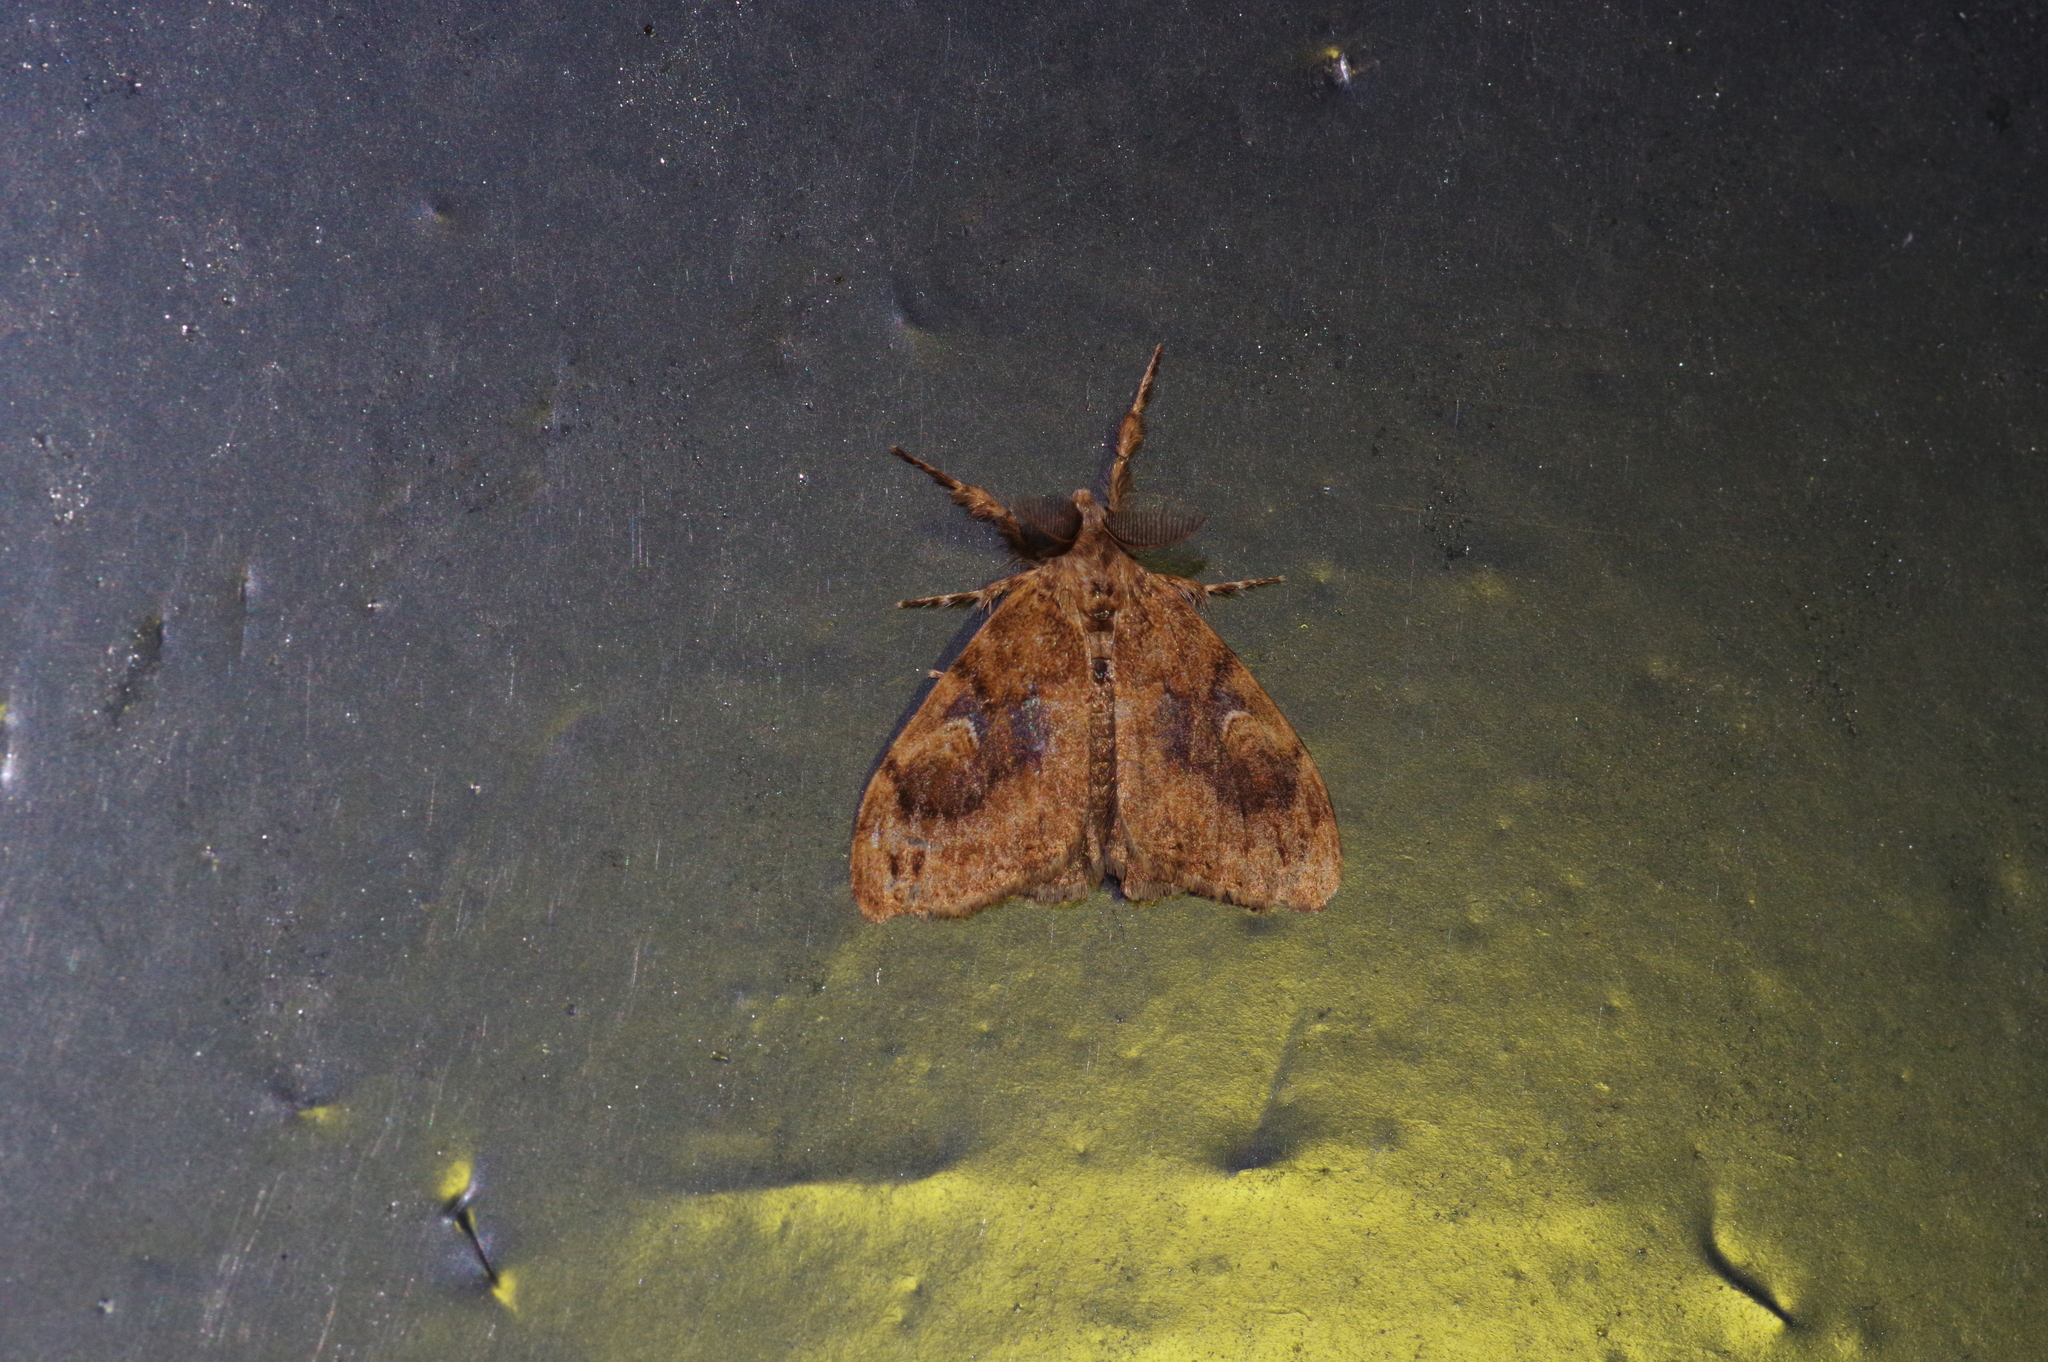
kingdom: Animalia
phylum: Arthropoda
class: Insecta
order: Lepidoptera
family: Erebidae
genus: Orgyia
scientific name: Orgyia postica
